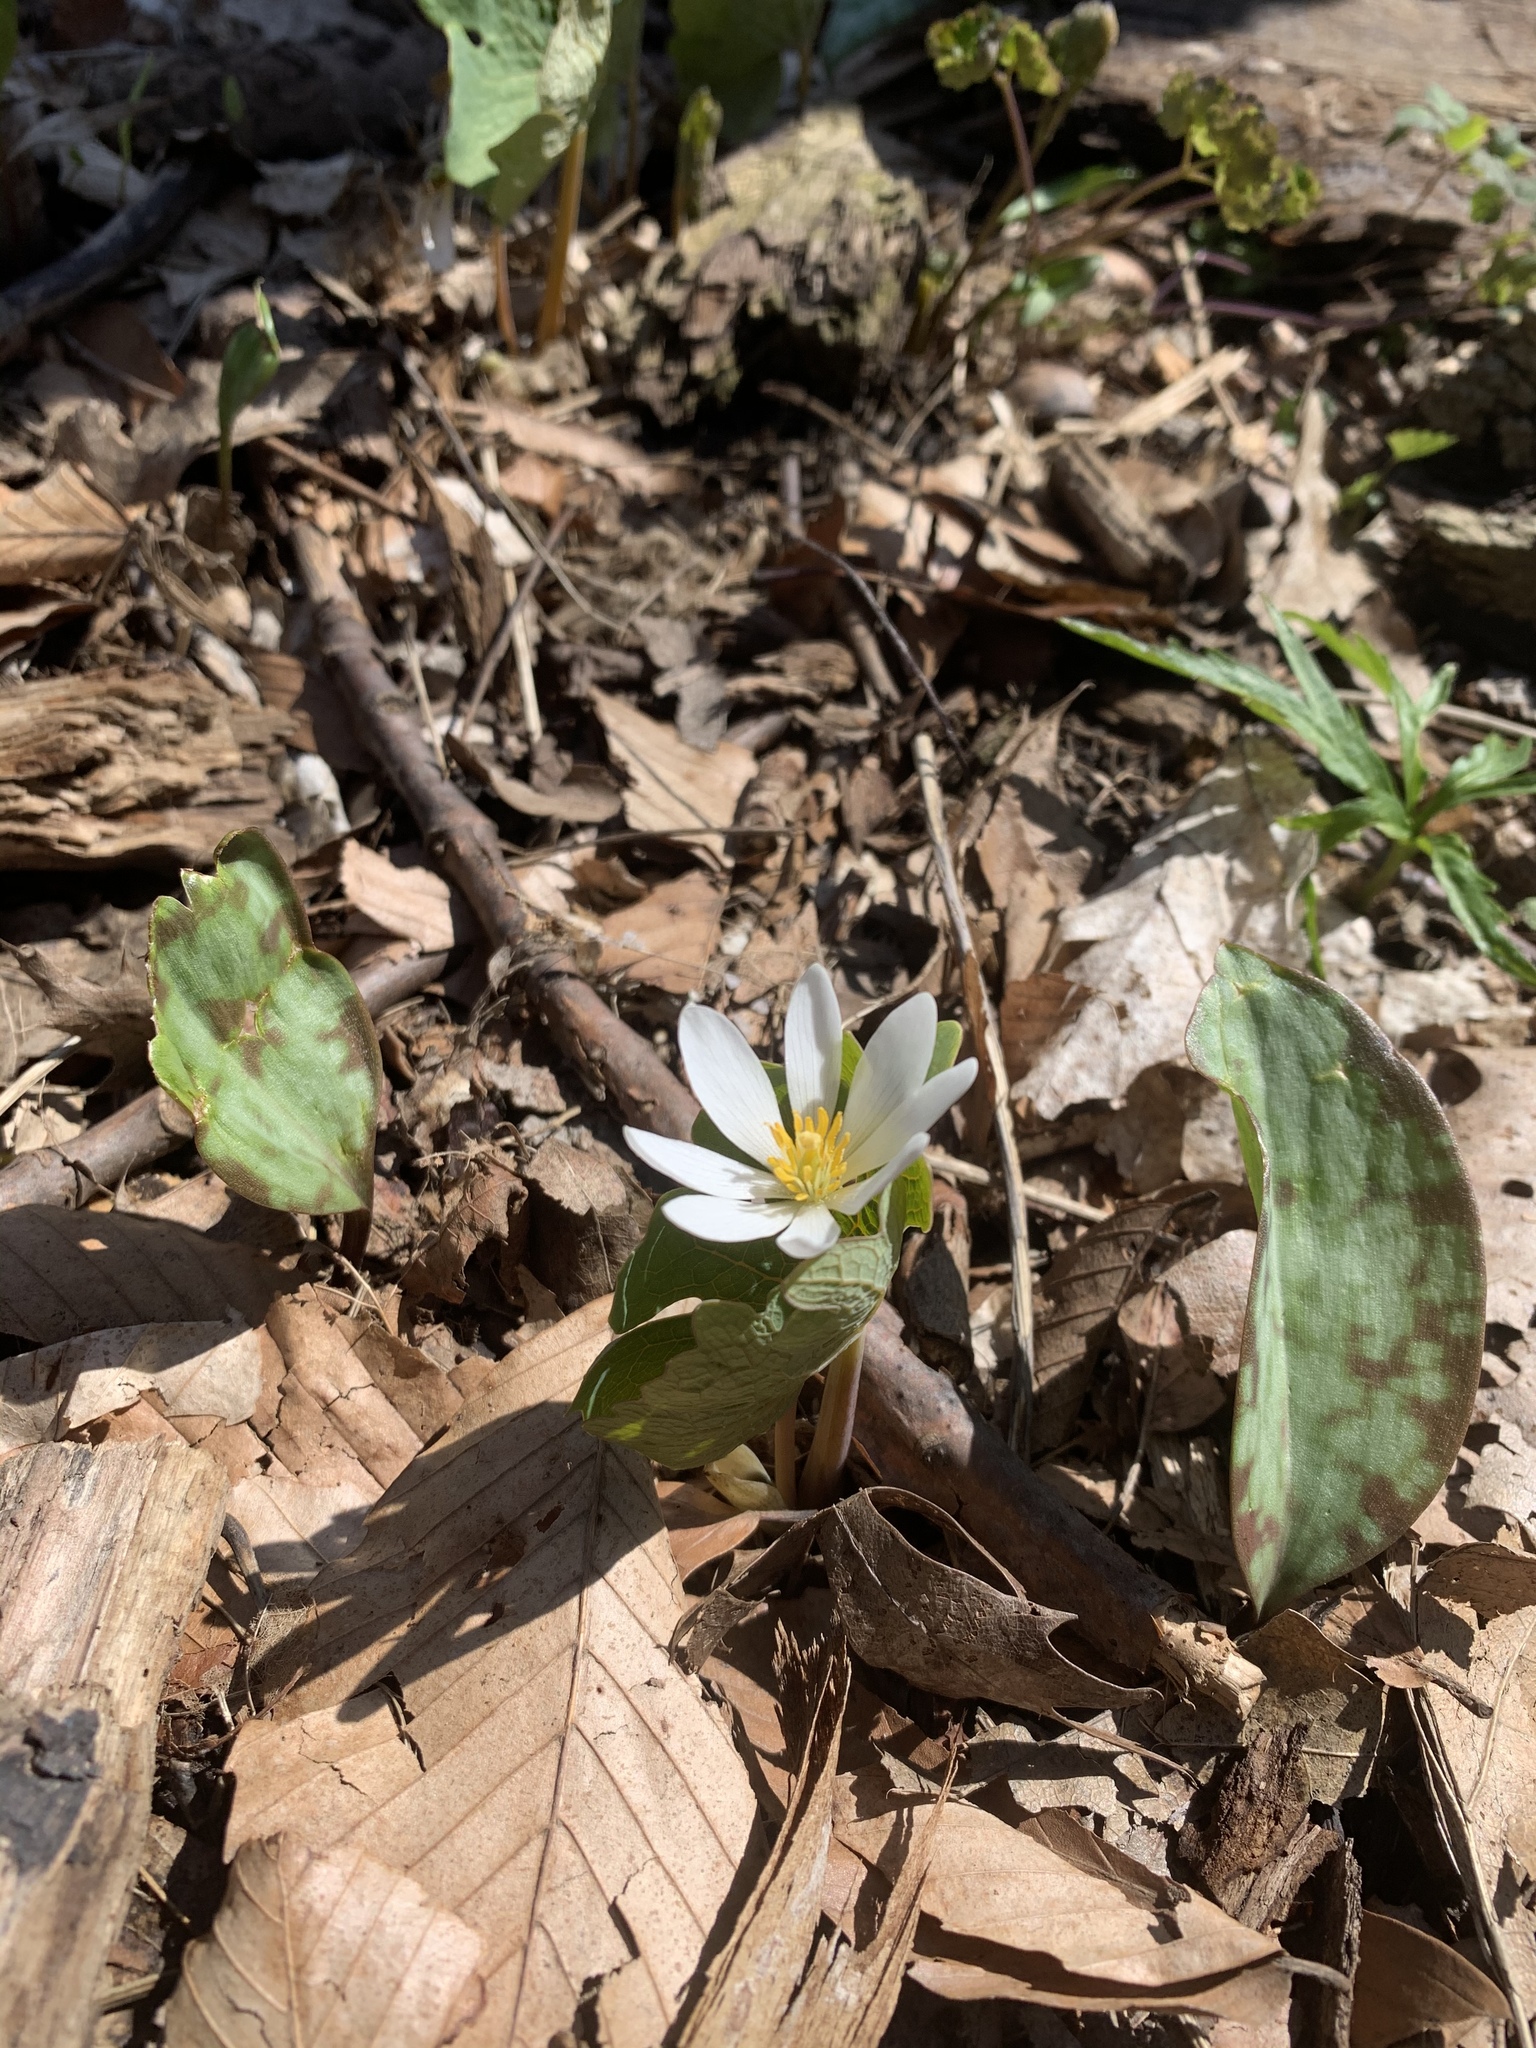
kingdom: Plantae
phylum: Tracheophyta
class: Magnoliopsida
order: Ranunculales
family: Papaveraceae
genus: Sanguinaria
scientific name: Sanguinaria canadensis
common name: Bloodroot
